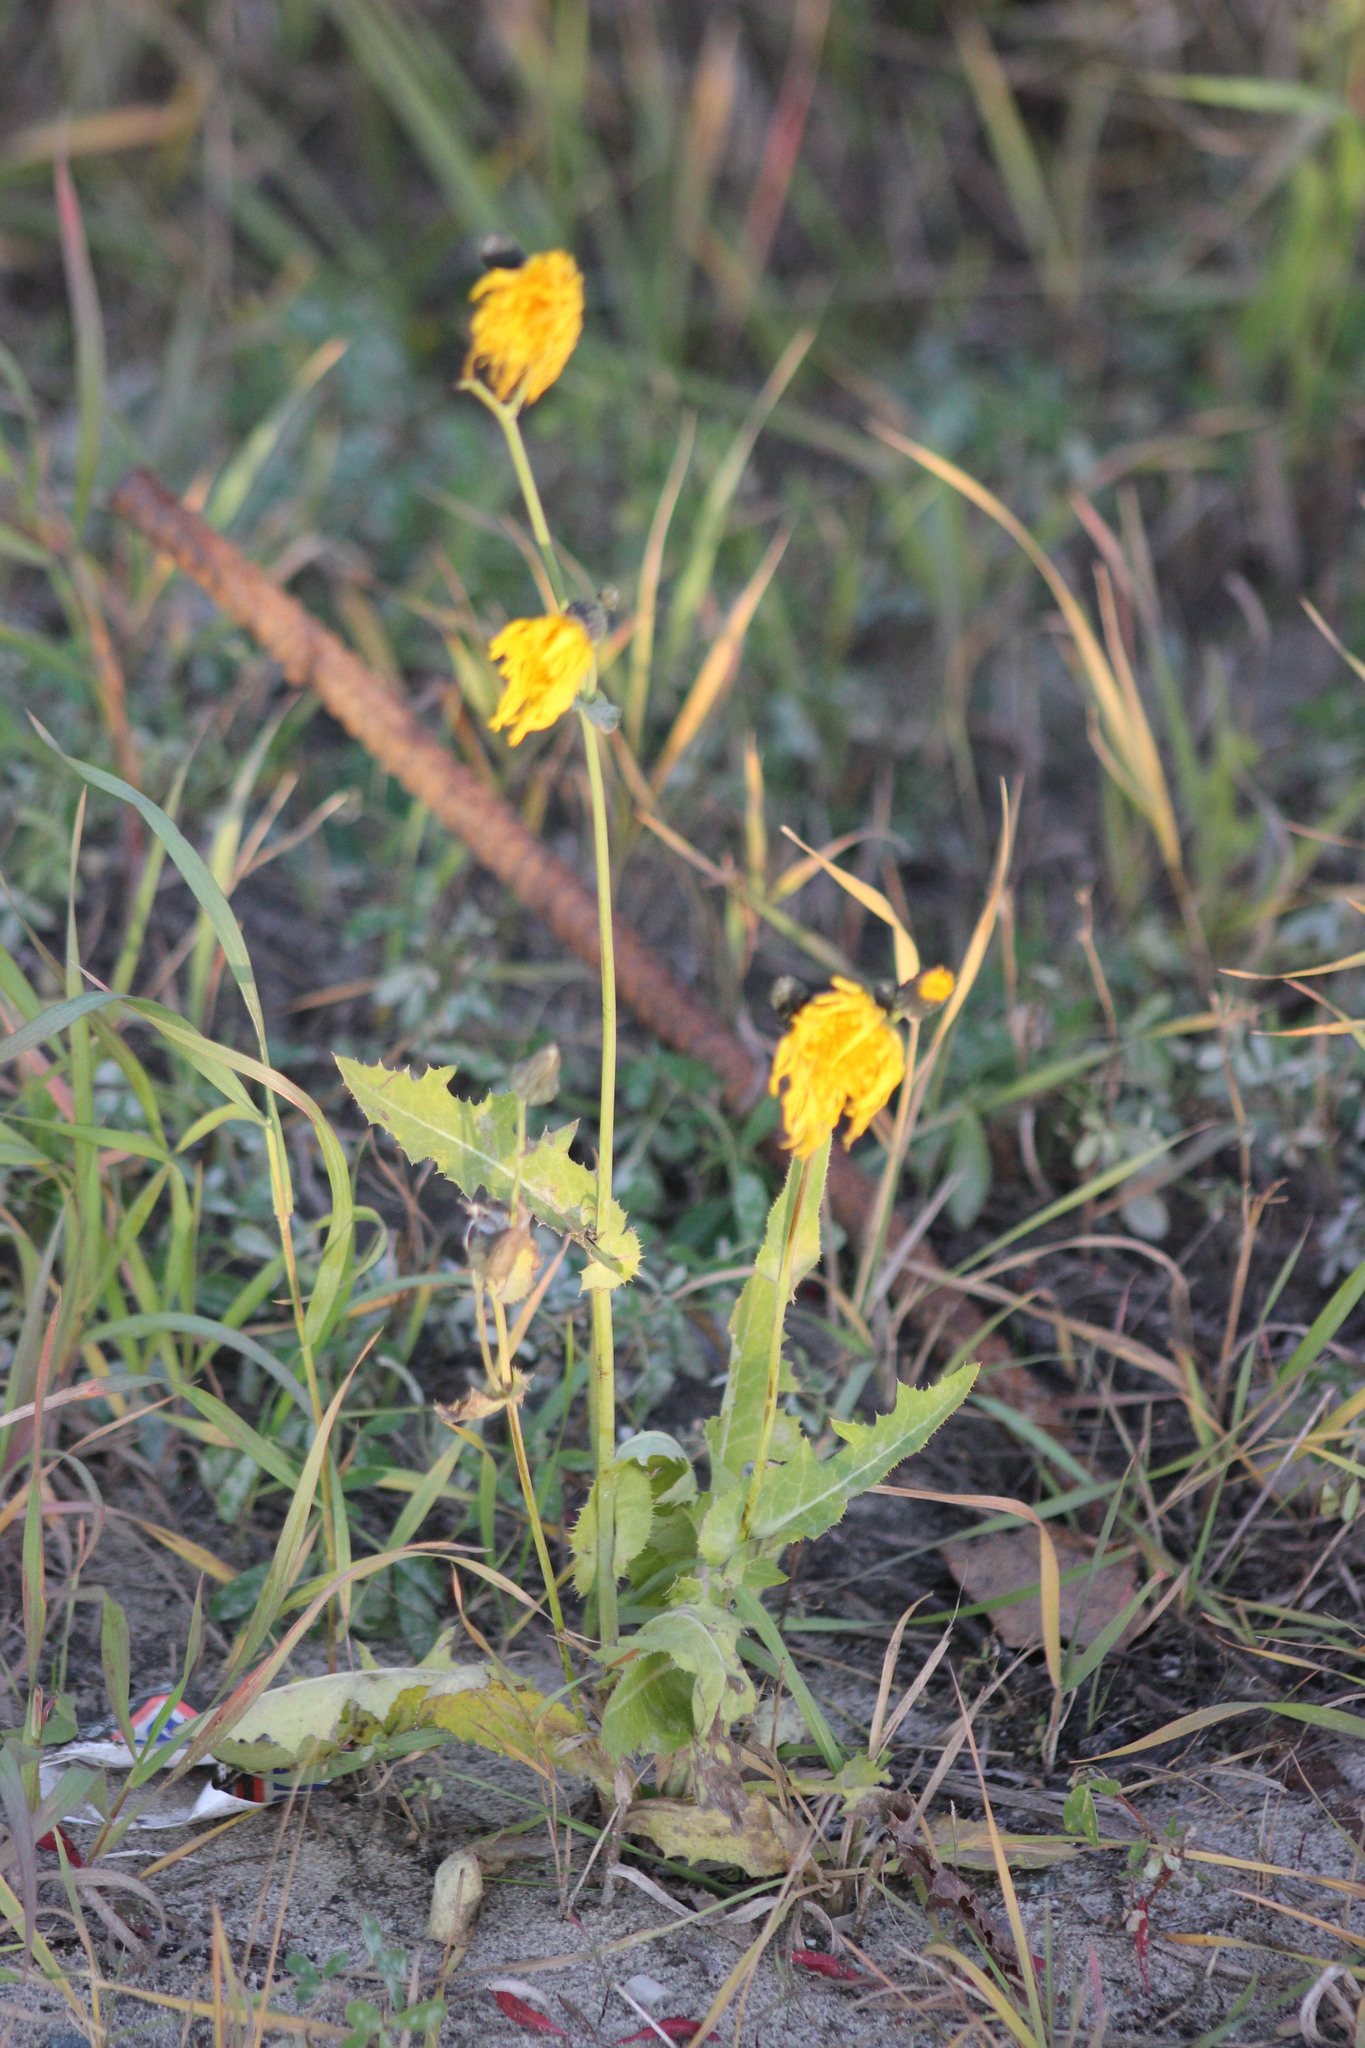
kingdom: Plantae
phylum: Tracheophyta
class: Magnoliopsida
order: Asterales
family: Asteraceae
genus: Sonchus
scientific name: Sonchus arvensis
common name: Perennial sow-thistle
